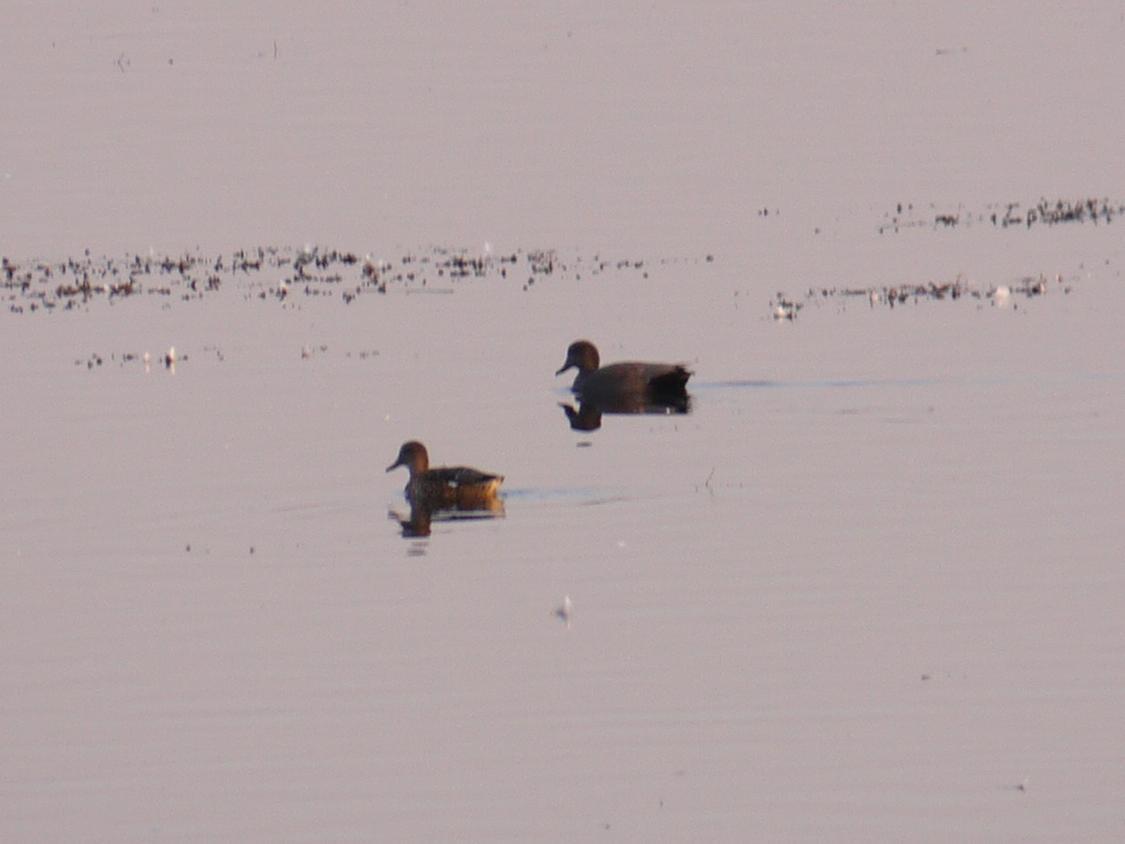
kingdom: Animalia
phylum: Chordata
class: Aves
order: Anseriformes
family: Anatidae
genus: Mareca
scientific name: Mareca strepera
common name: Gadwall
